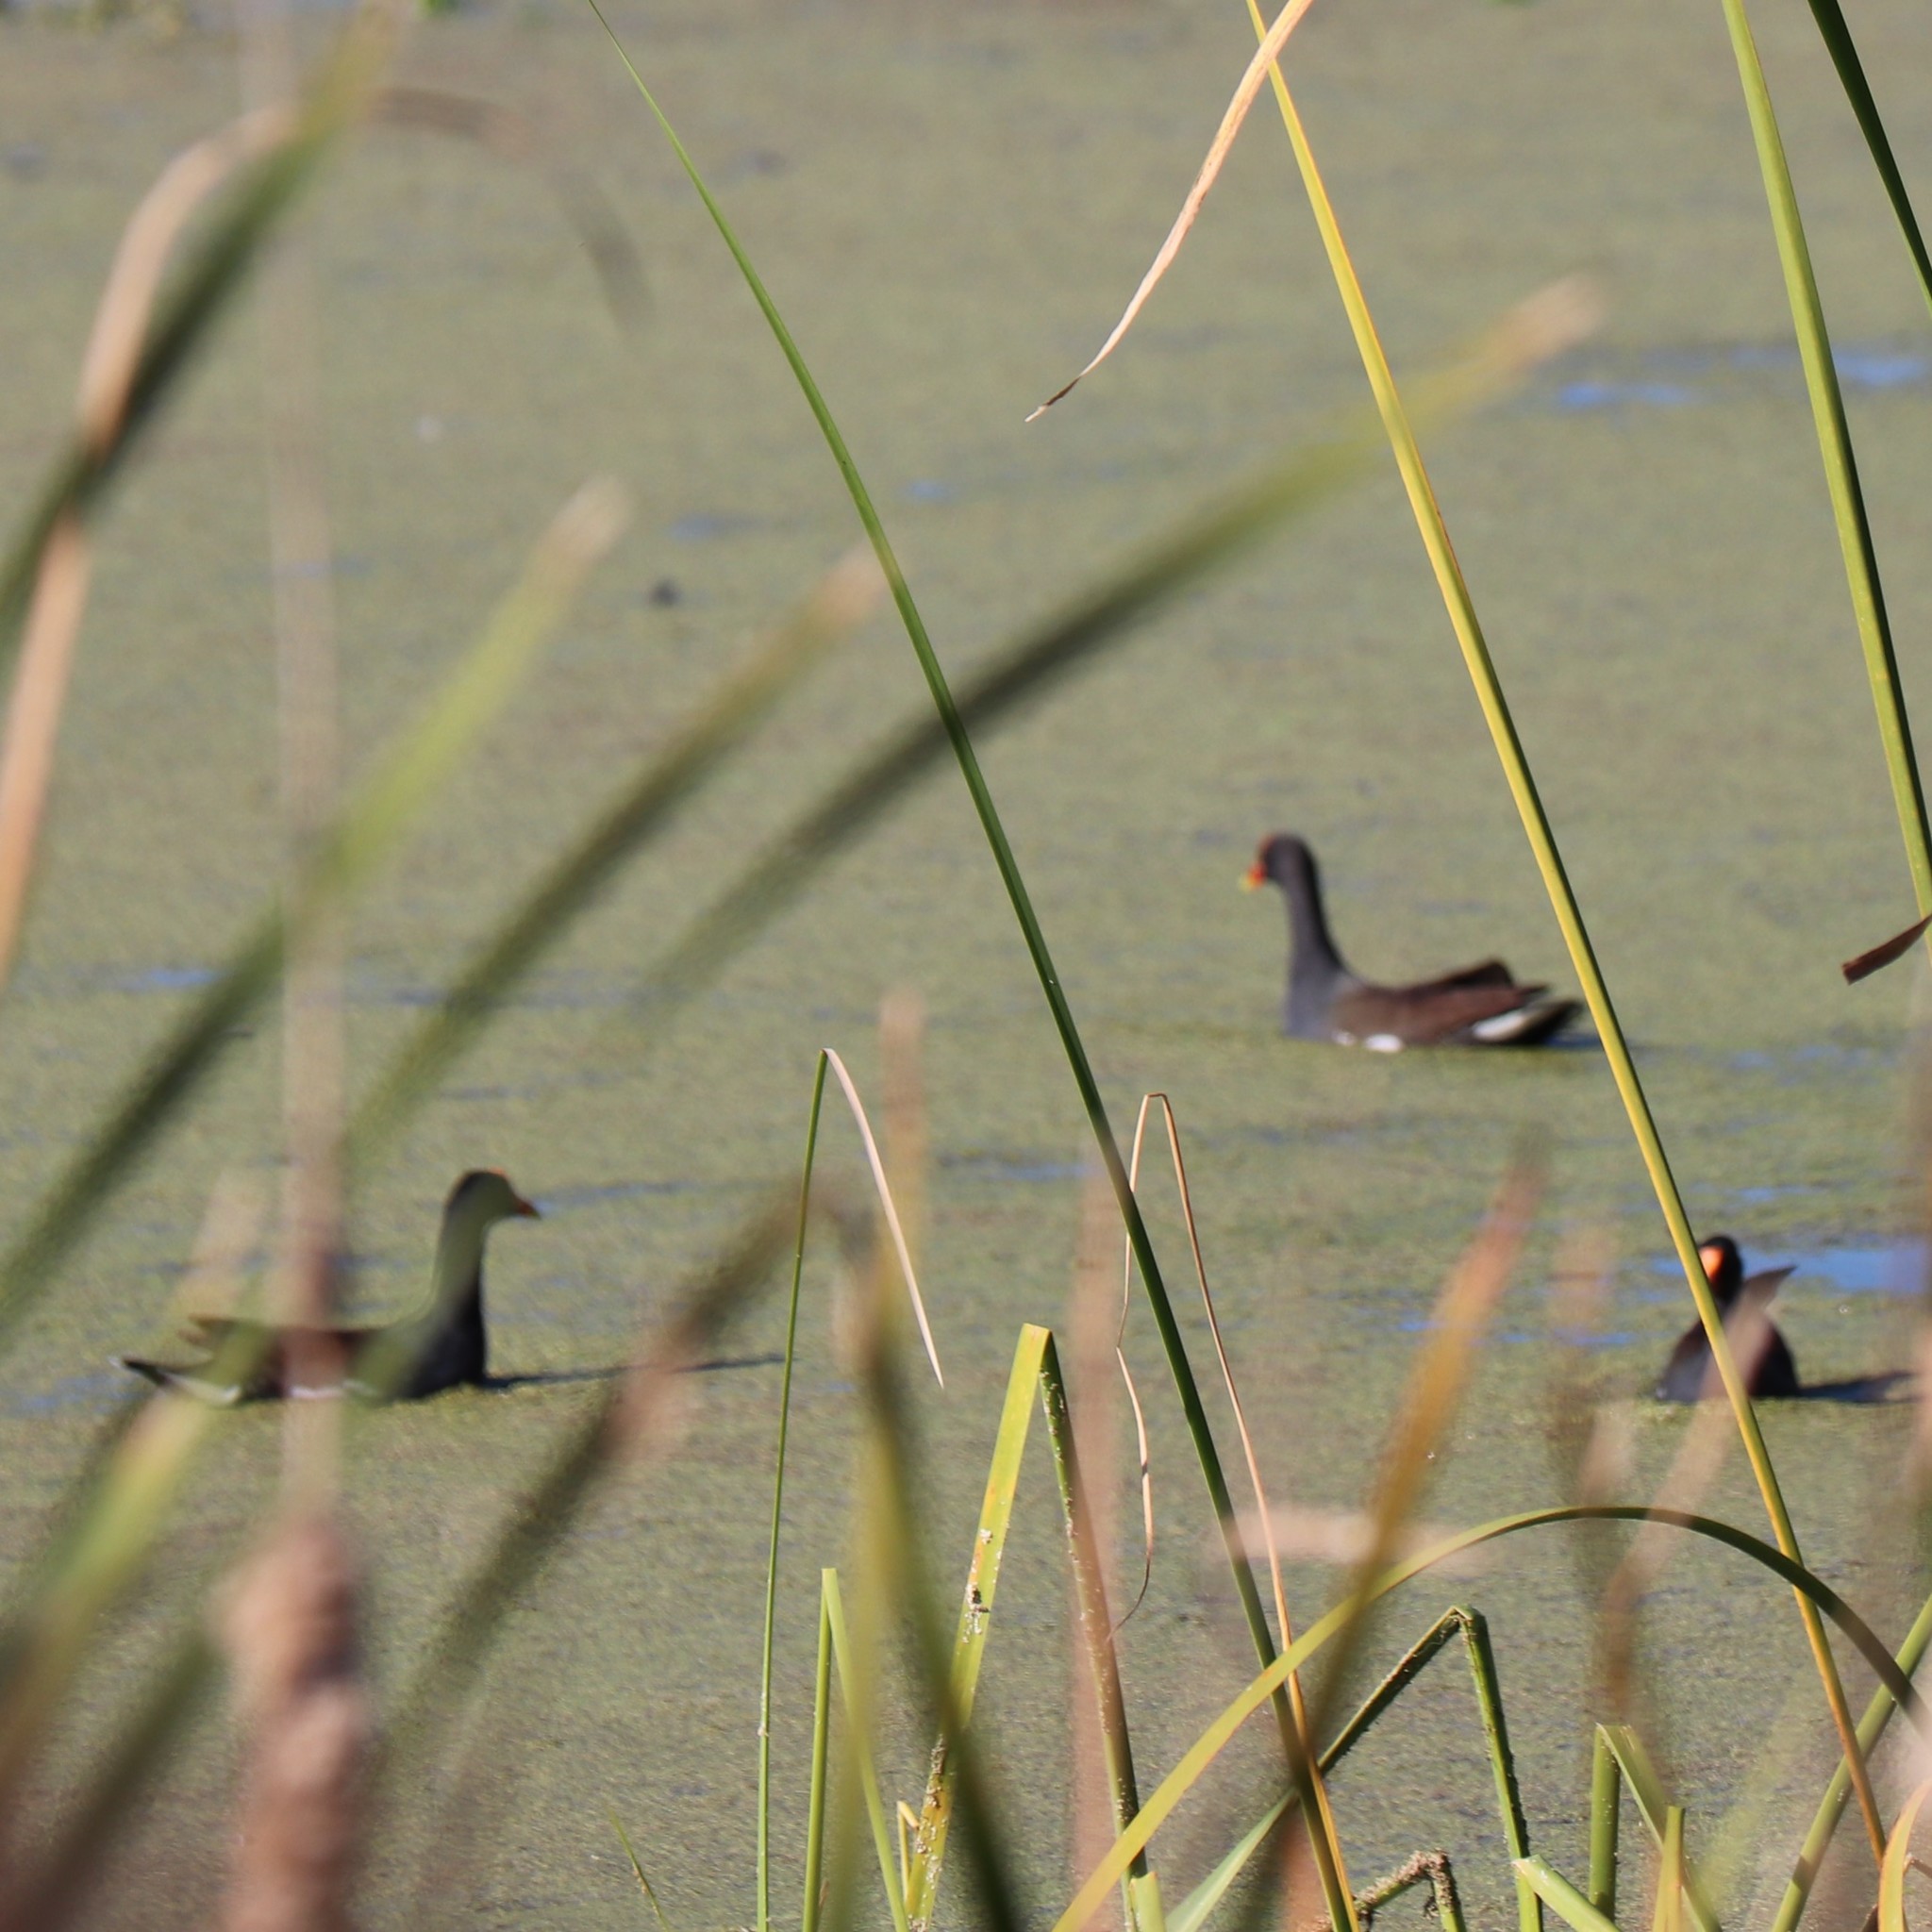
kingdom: Animalia
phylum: Chordata
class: Aves
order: Gruiformes
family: Rallidae
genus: Gallinula
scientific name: Gallinula chloropus
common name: Common moorhen
